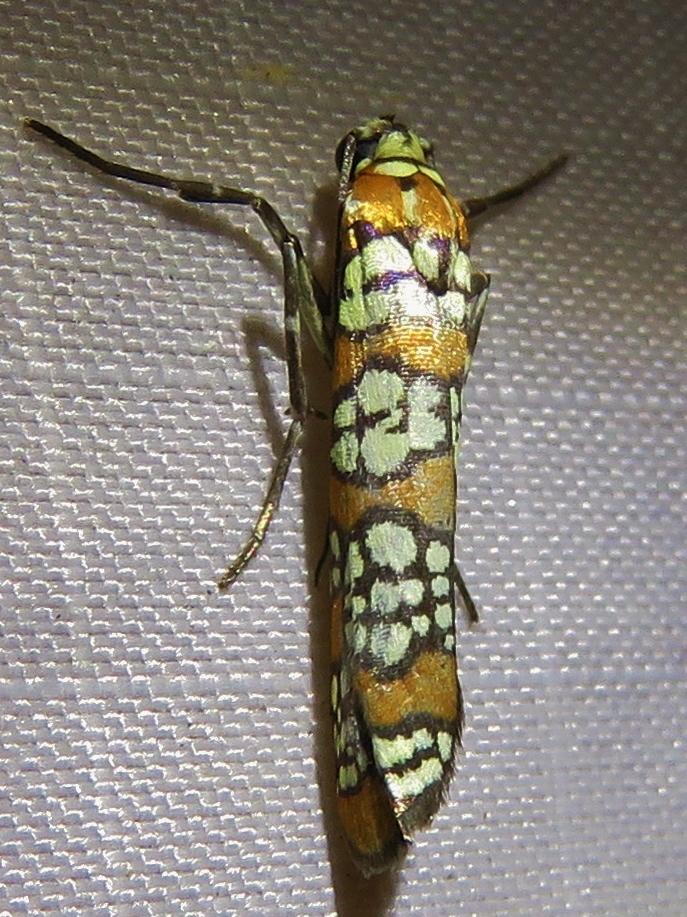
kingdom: Animalia
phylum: Arthropoda
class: Insecta
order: Lepidoptera
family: Attevidae
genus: Atteva
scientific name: Atteva punctella
